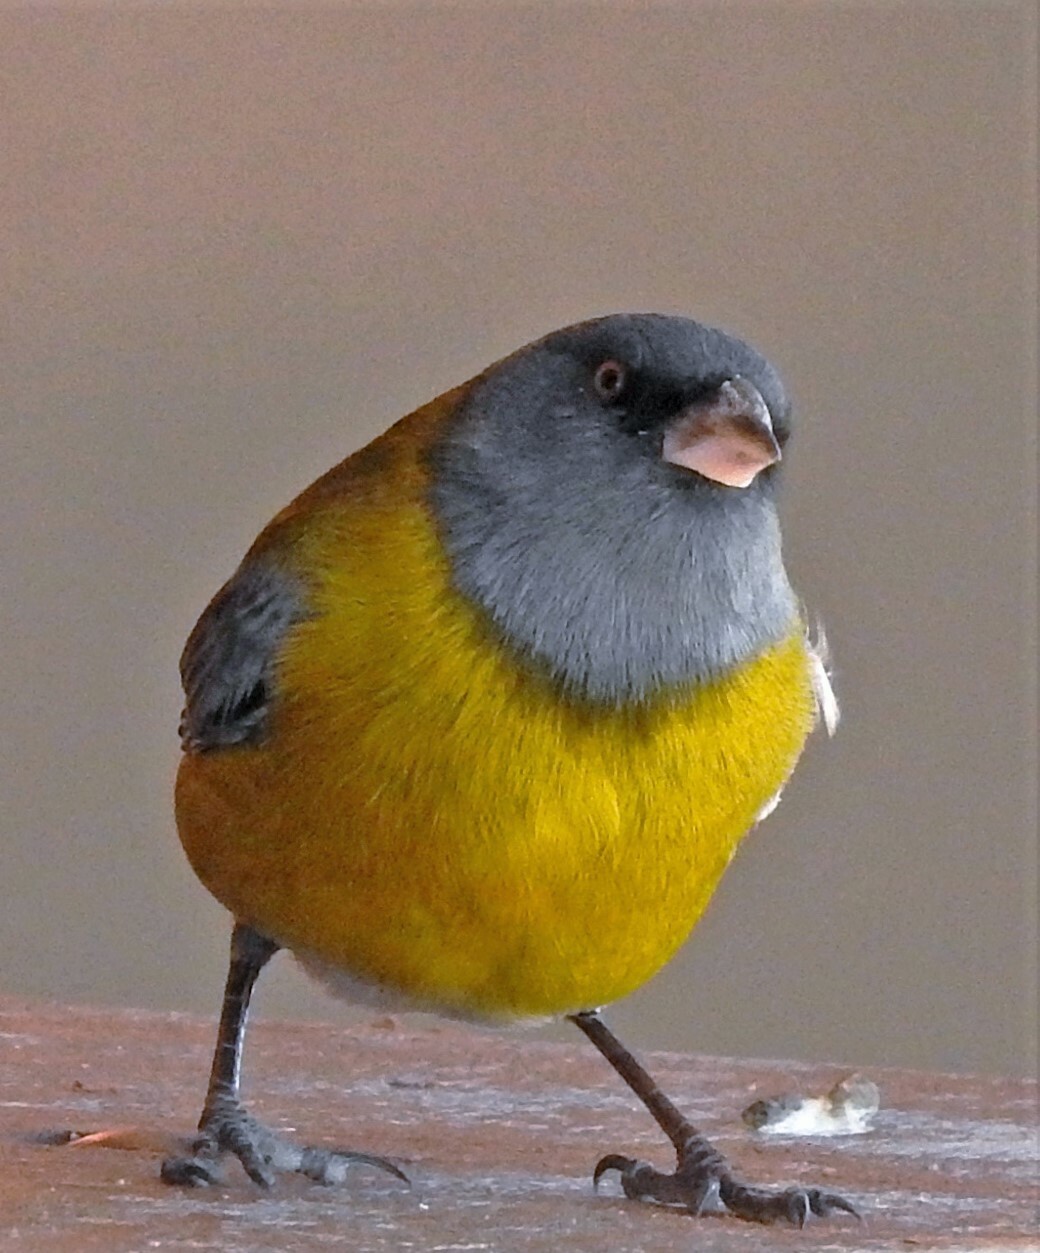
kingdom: Animalia
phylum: Chordata
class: Aves
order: Passeriformes
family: Thraupidae
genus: Phrygilus
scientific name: Phrygilus gayi
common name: Grey-hooded sierra finch
